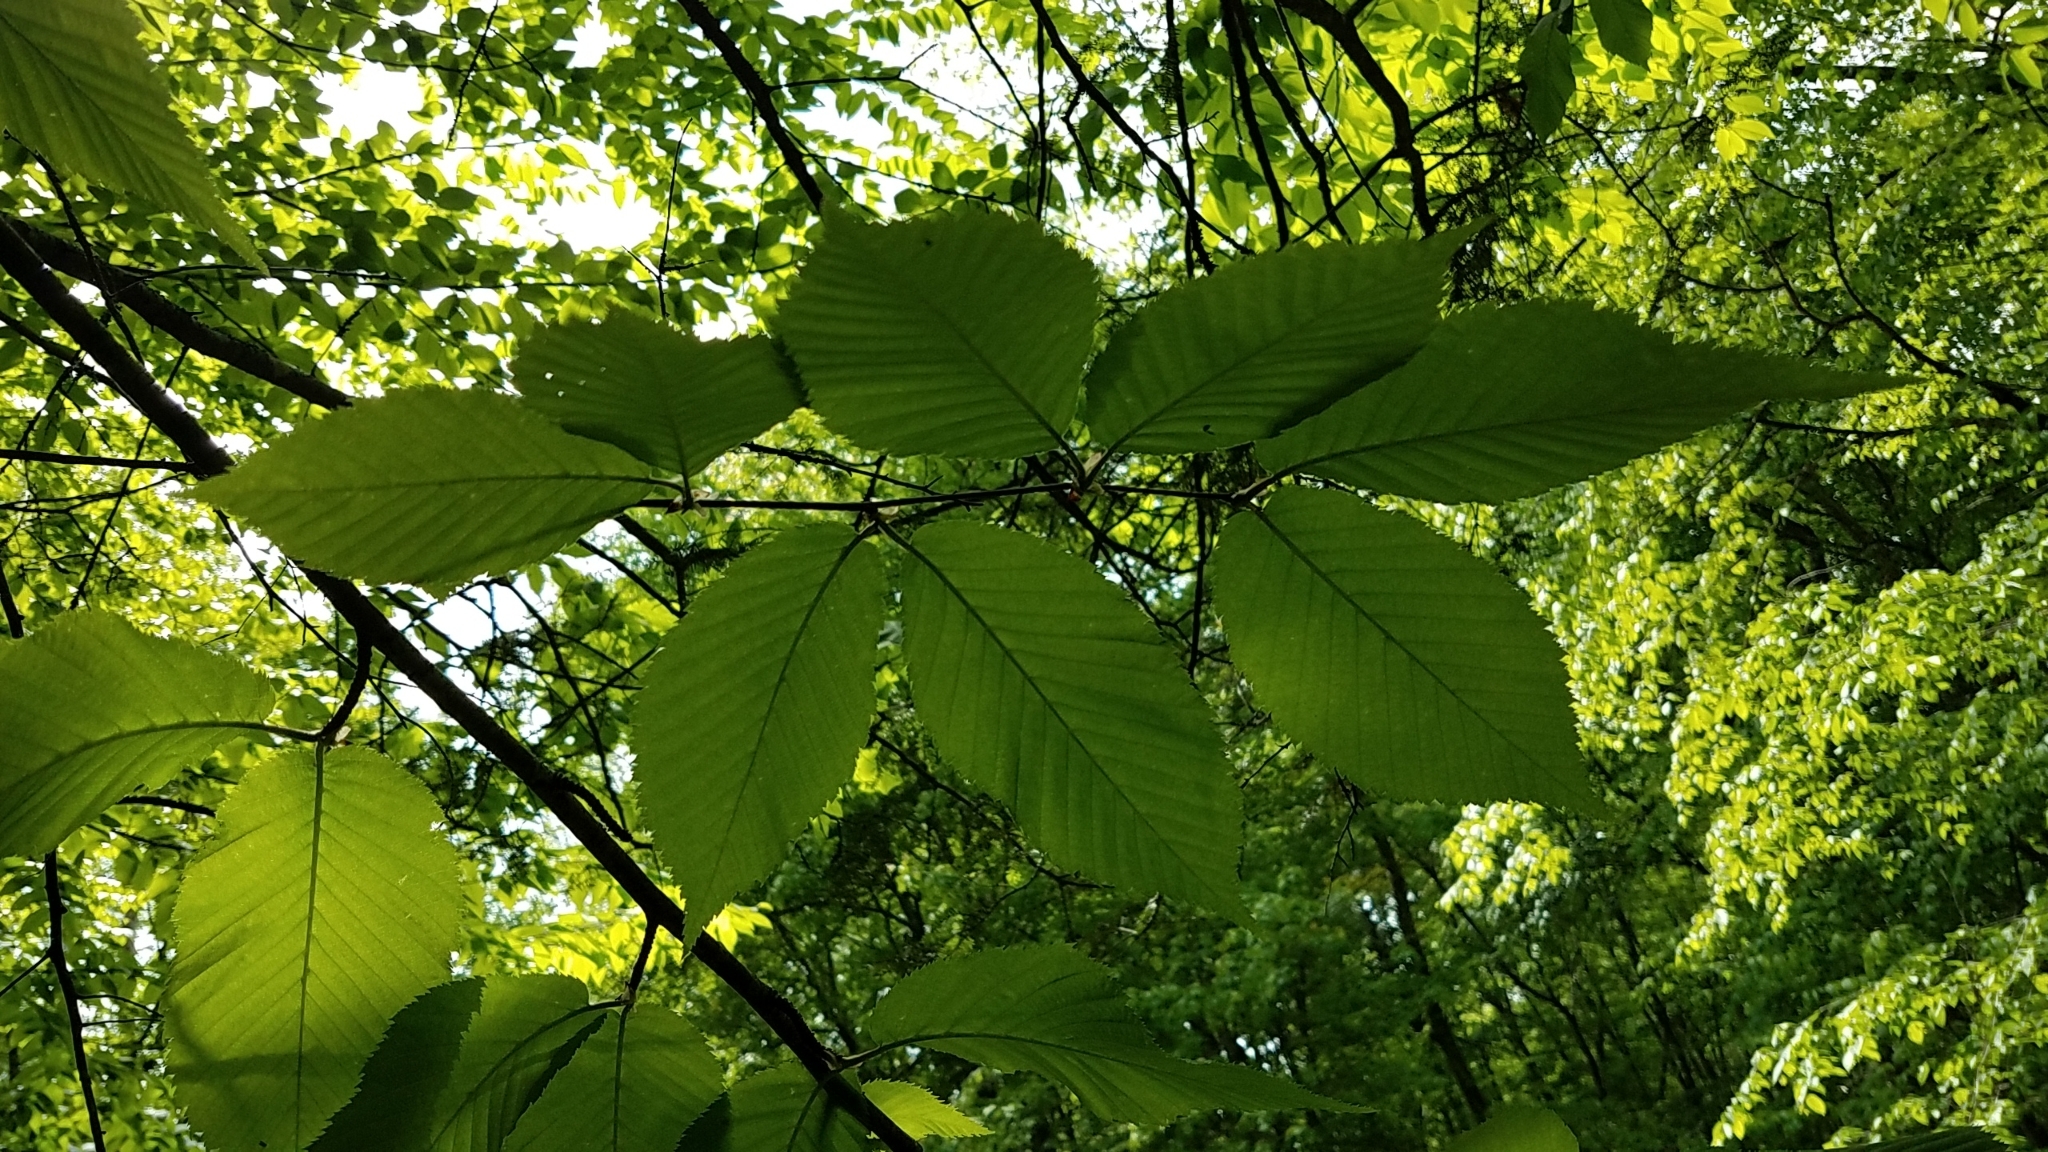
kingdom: Plantae
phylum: Tracheophyta
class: Magnoliopsida
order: Fagales
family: Betulaceae
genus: Betula
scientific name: Betula alleghaniensis
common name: Yellow birch
